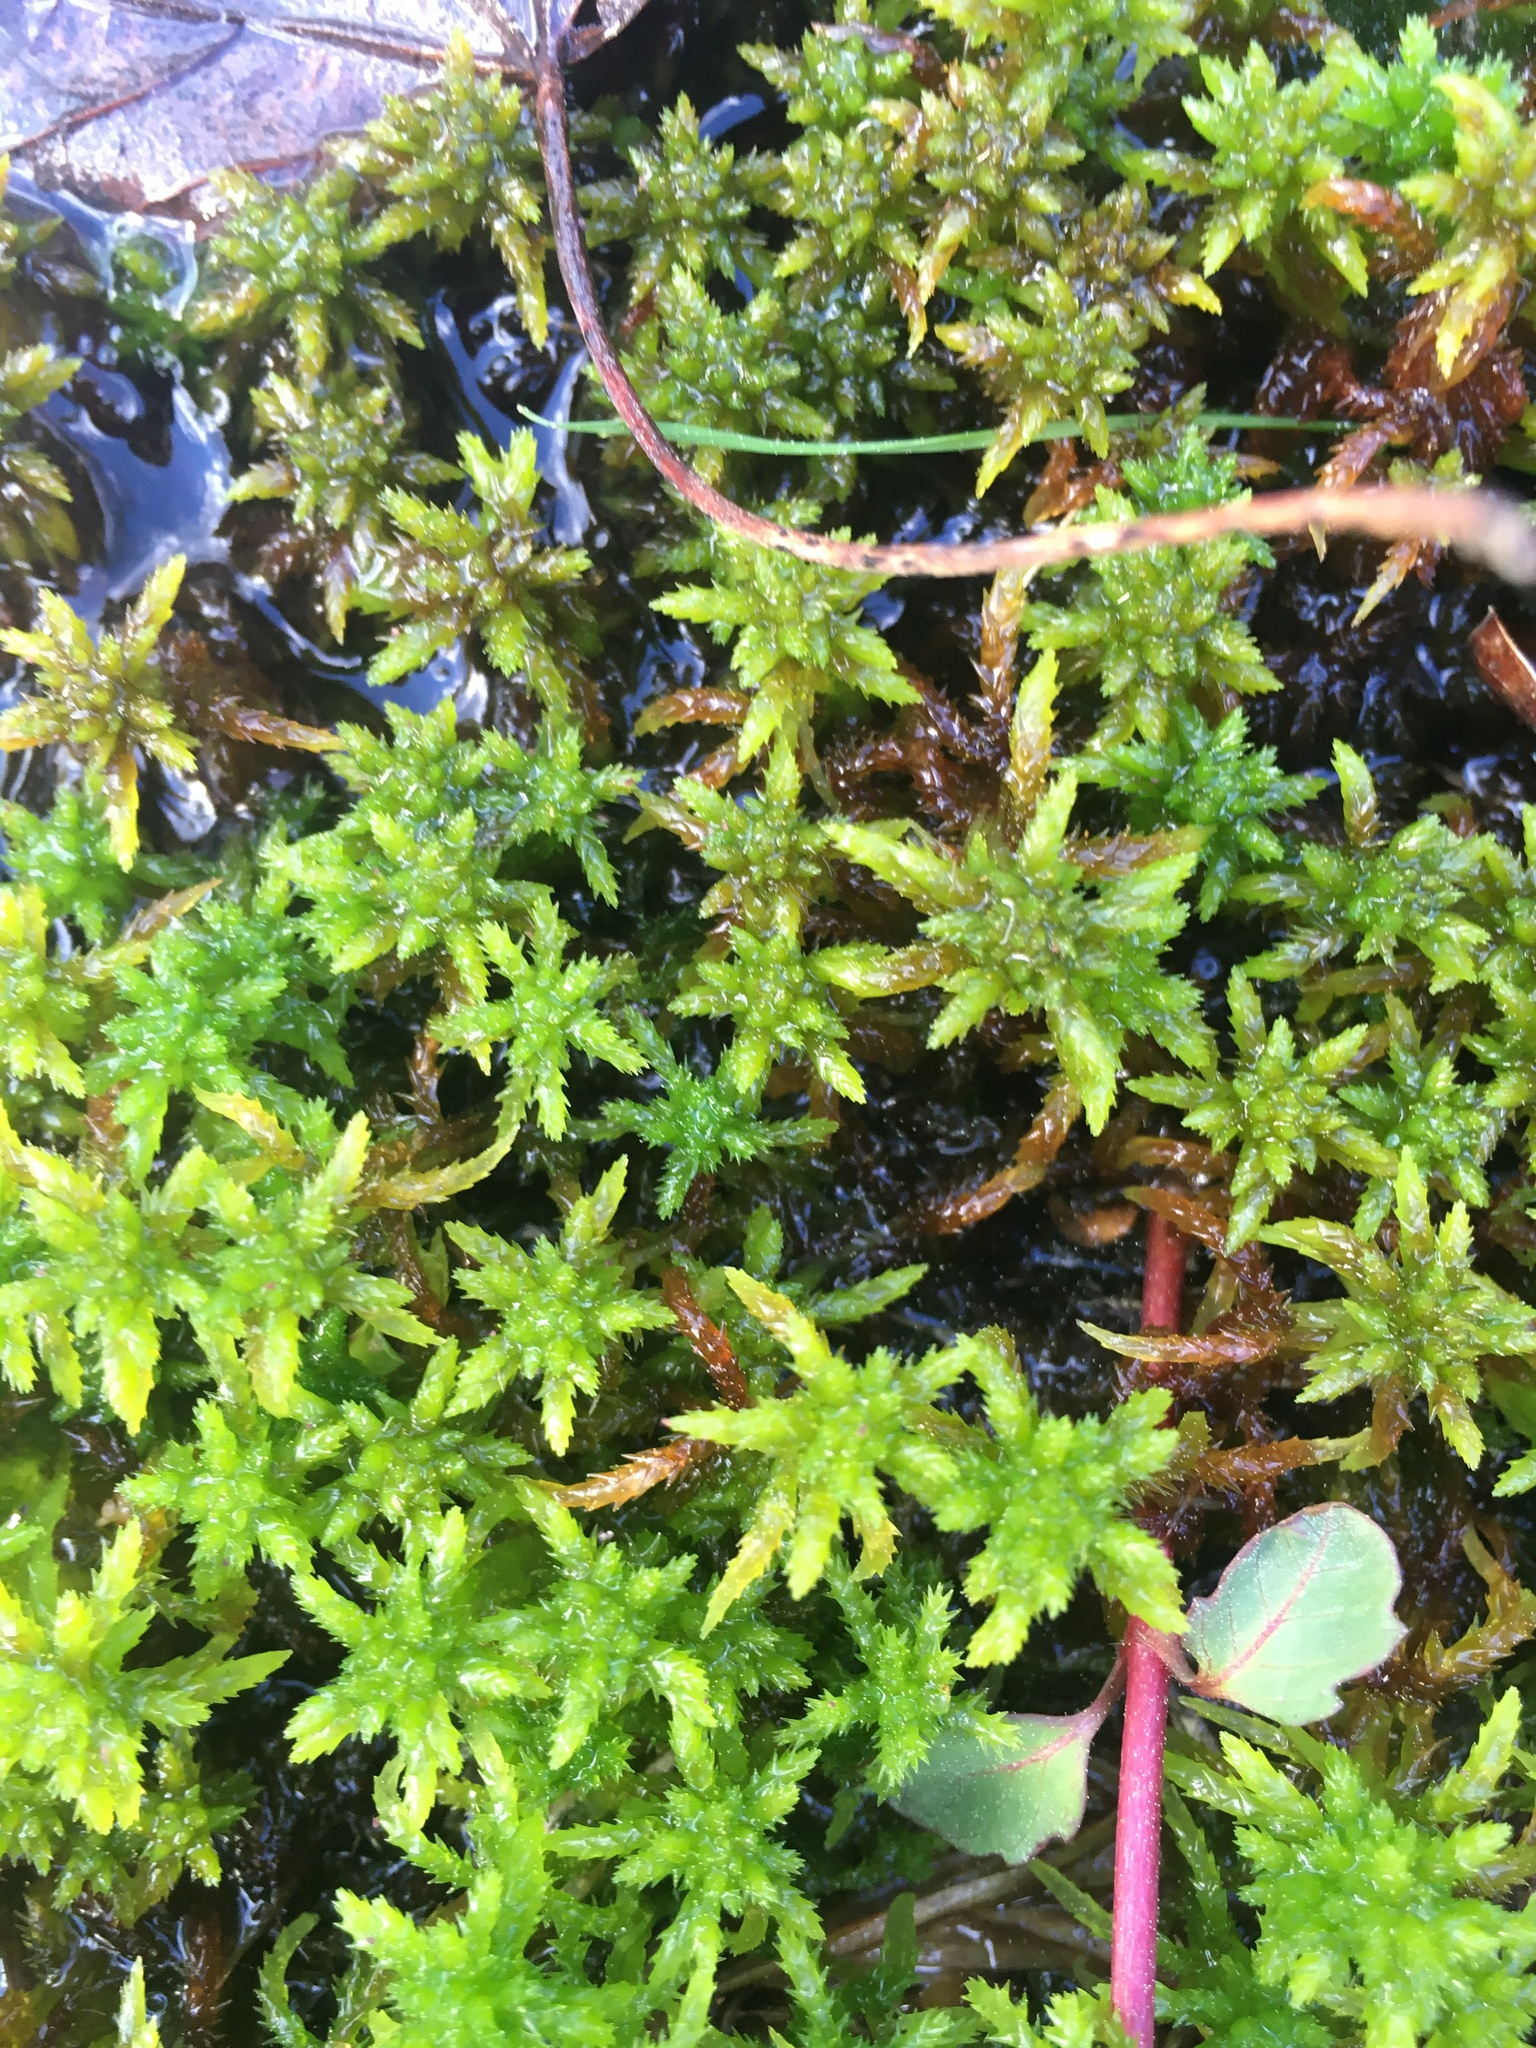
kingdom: Plantae
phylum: Bryophyta
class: Sphagnopsida
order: Sphagnales
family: Sphagnaceae
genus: Sphagnum
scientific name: Sphagnum missouricum
